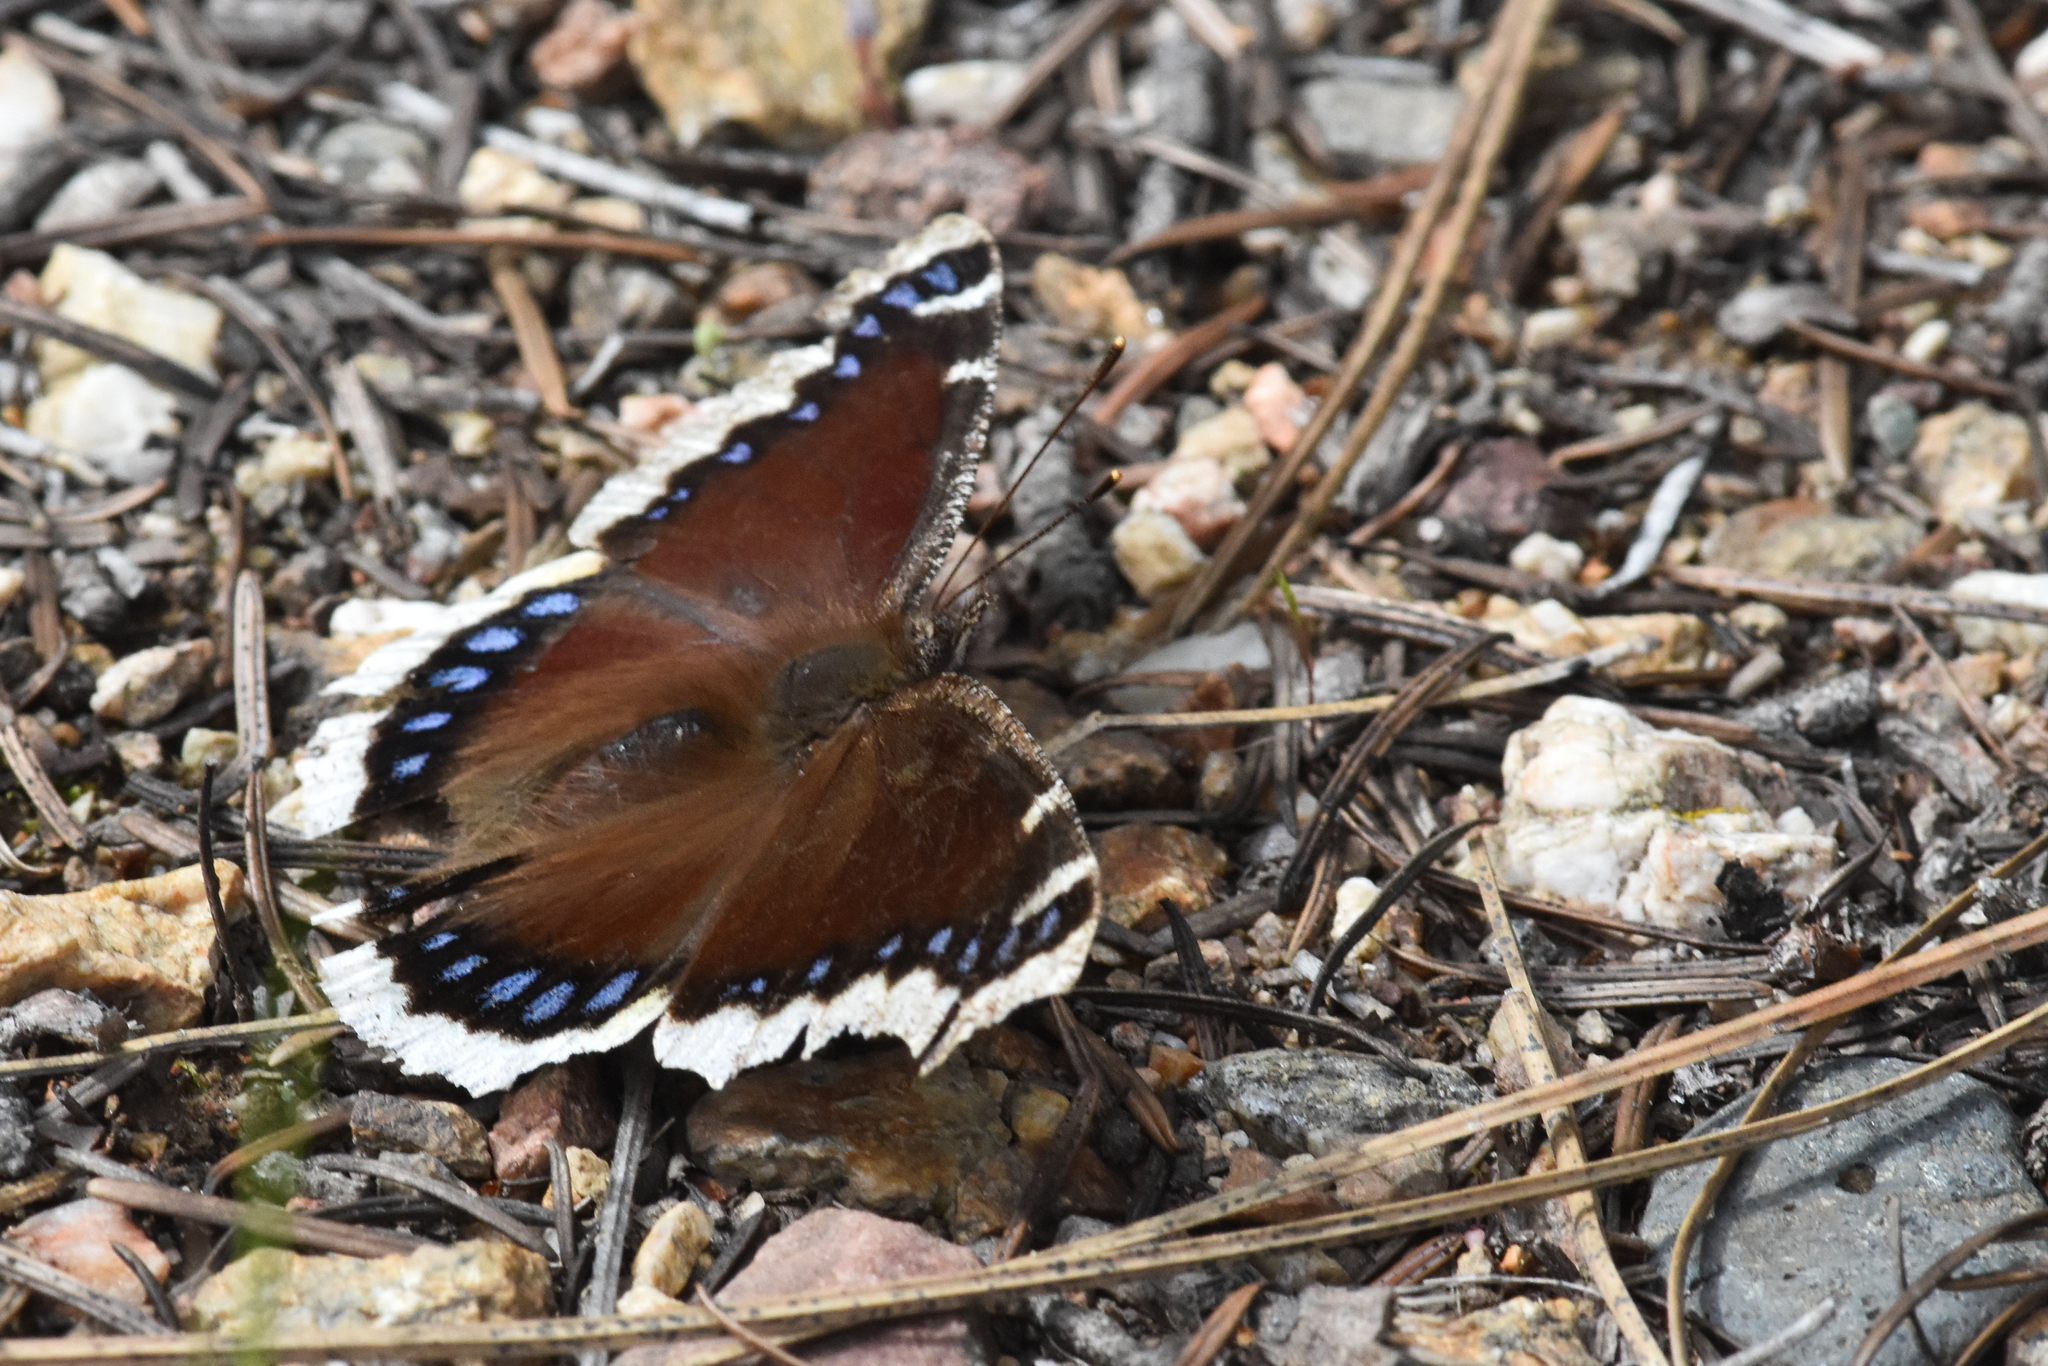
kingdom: Animalia
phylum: Arthropoda
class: Insecta
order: Lepidoptera
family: Nymphalidae
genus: Nymphalis
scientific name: Nymphalis antiopa
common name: Camberwell beauty
